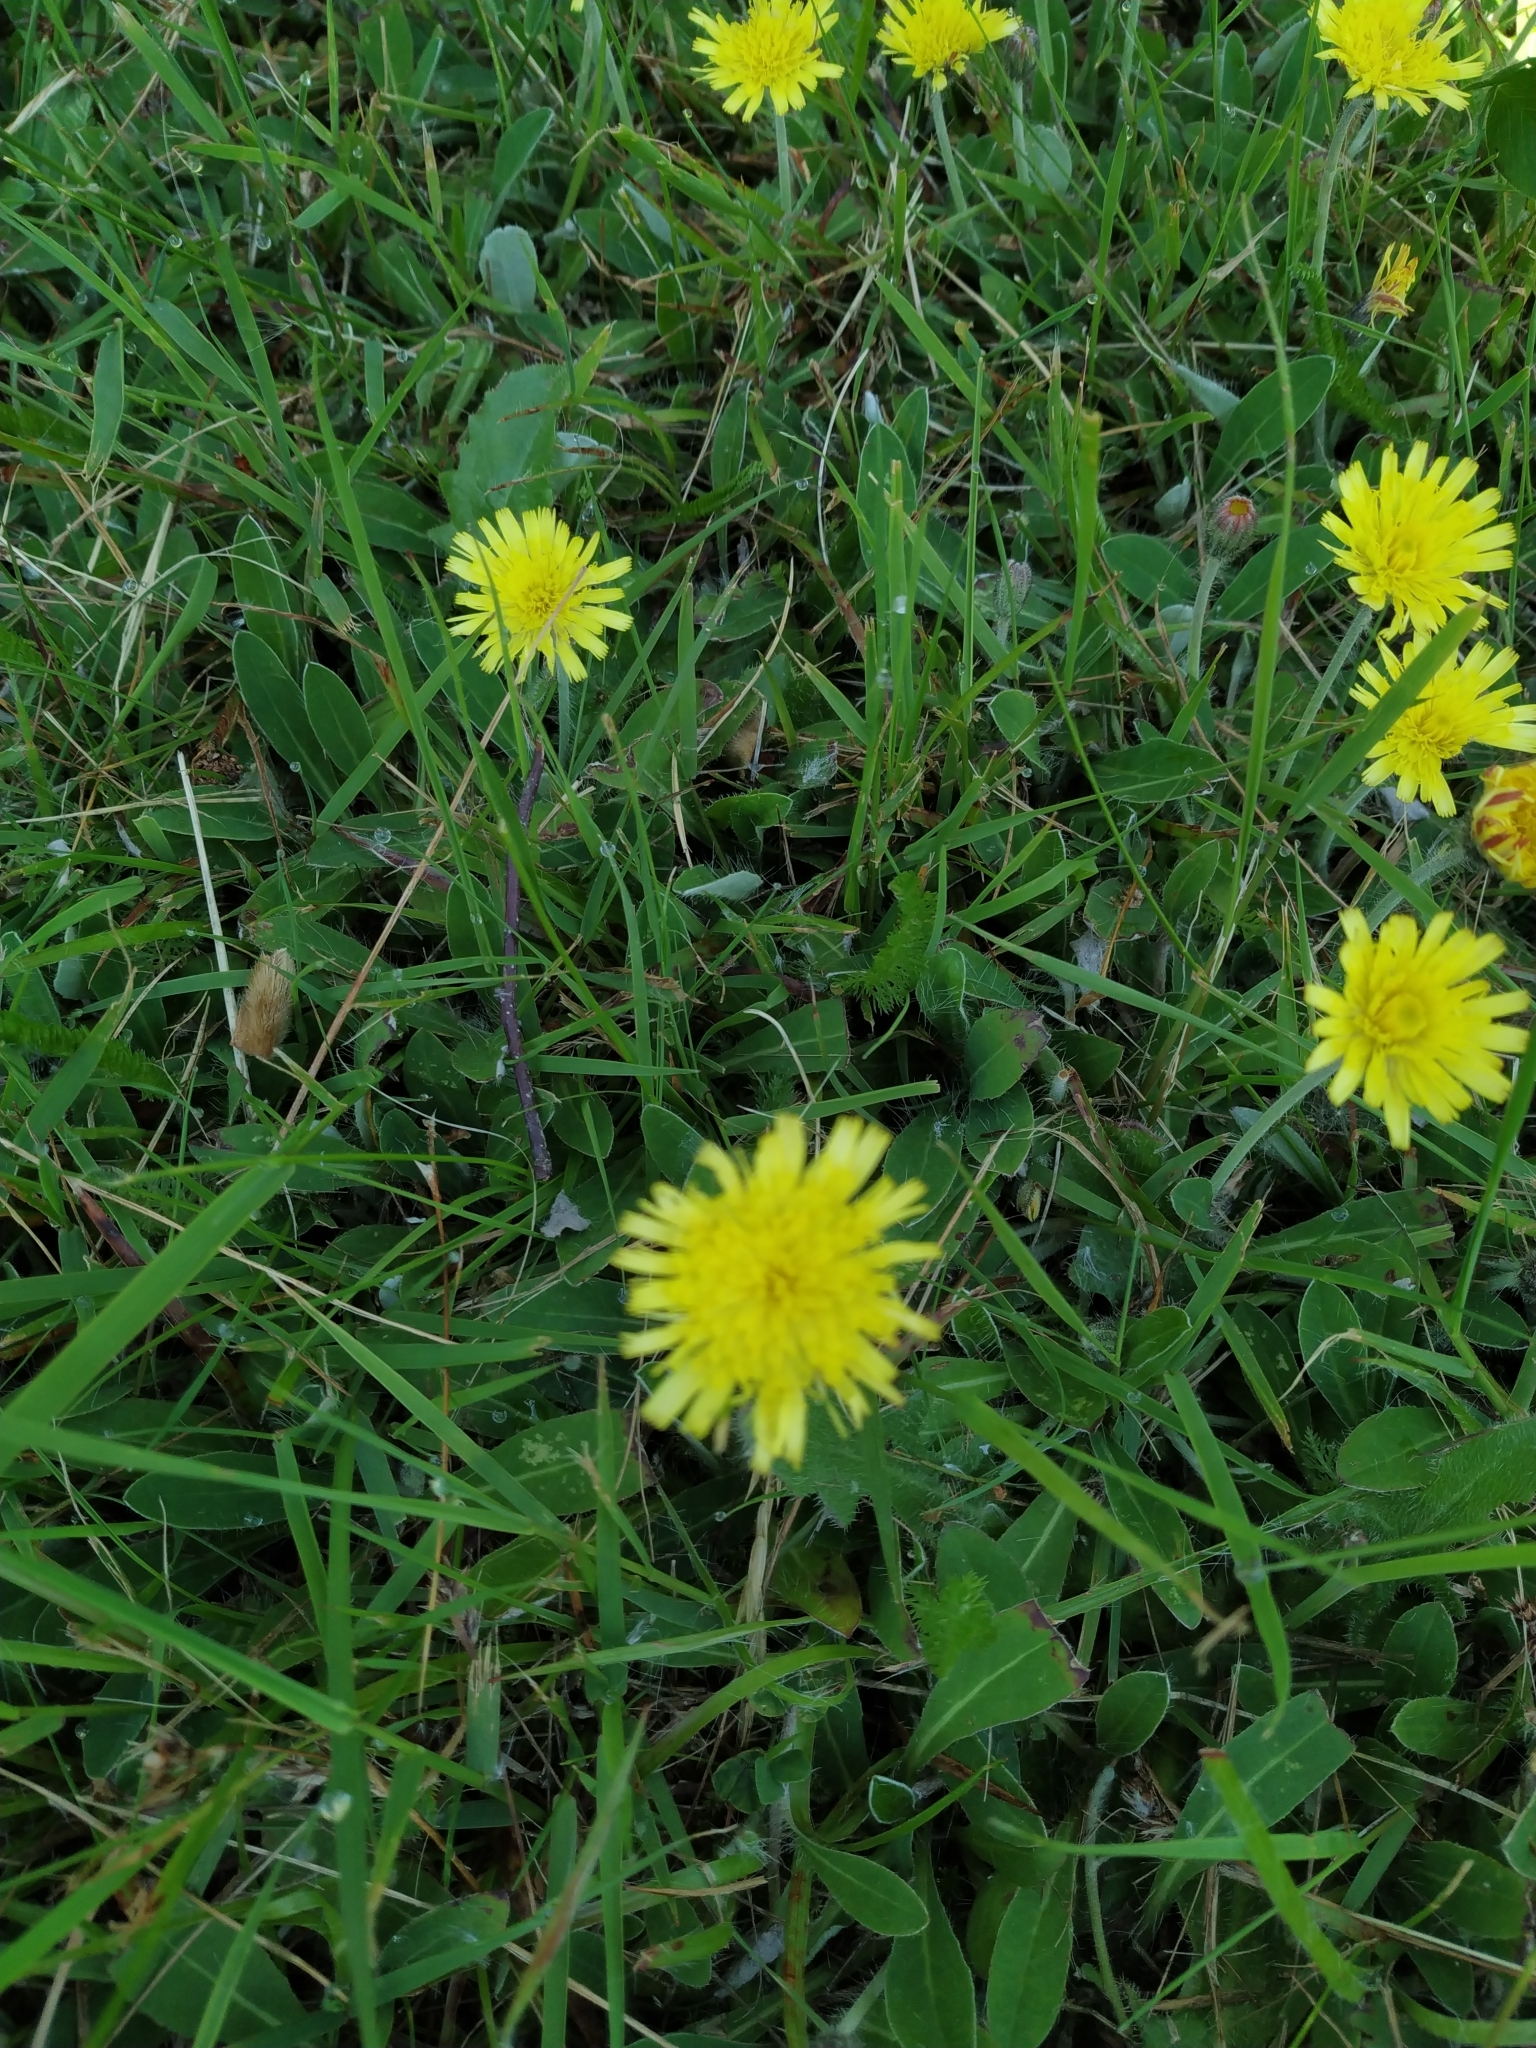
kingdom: Plantae
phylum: Tracheophyta
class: Magnoliopsida
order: Asterales
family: Asteraceae
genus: Pilosella
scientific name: Pilosella officinarum
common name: Mouse-ear hawkweed
